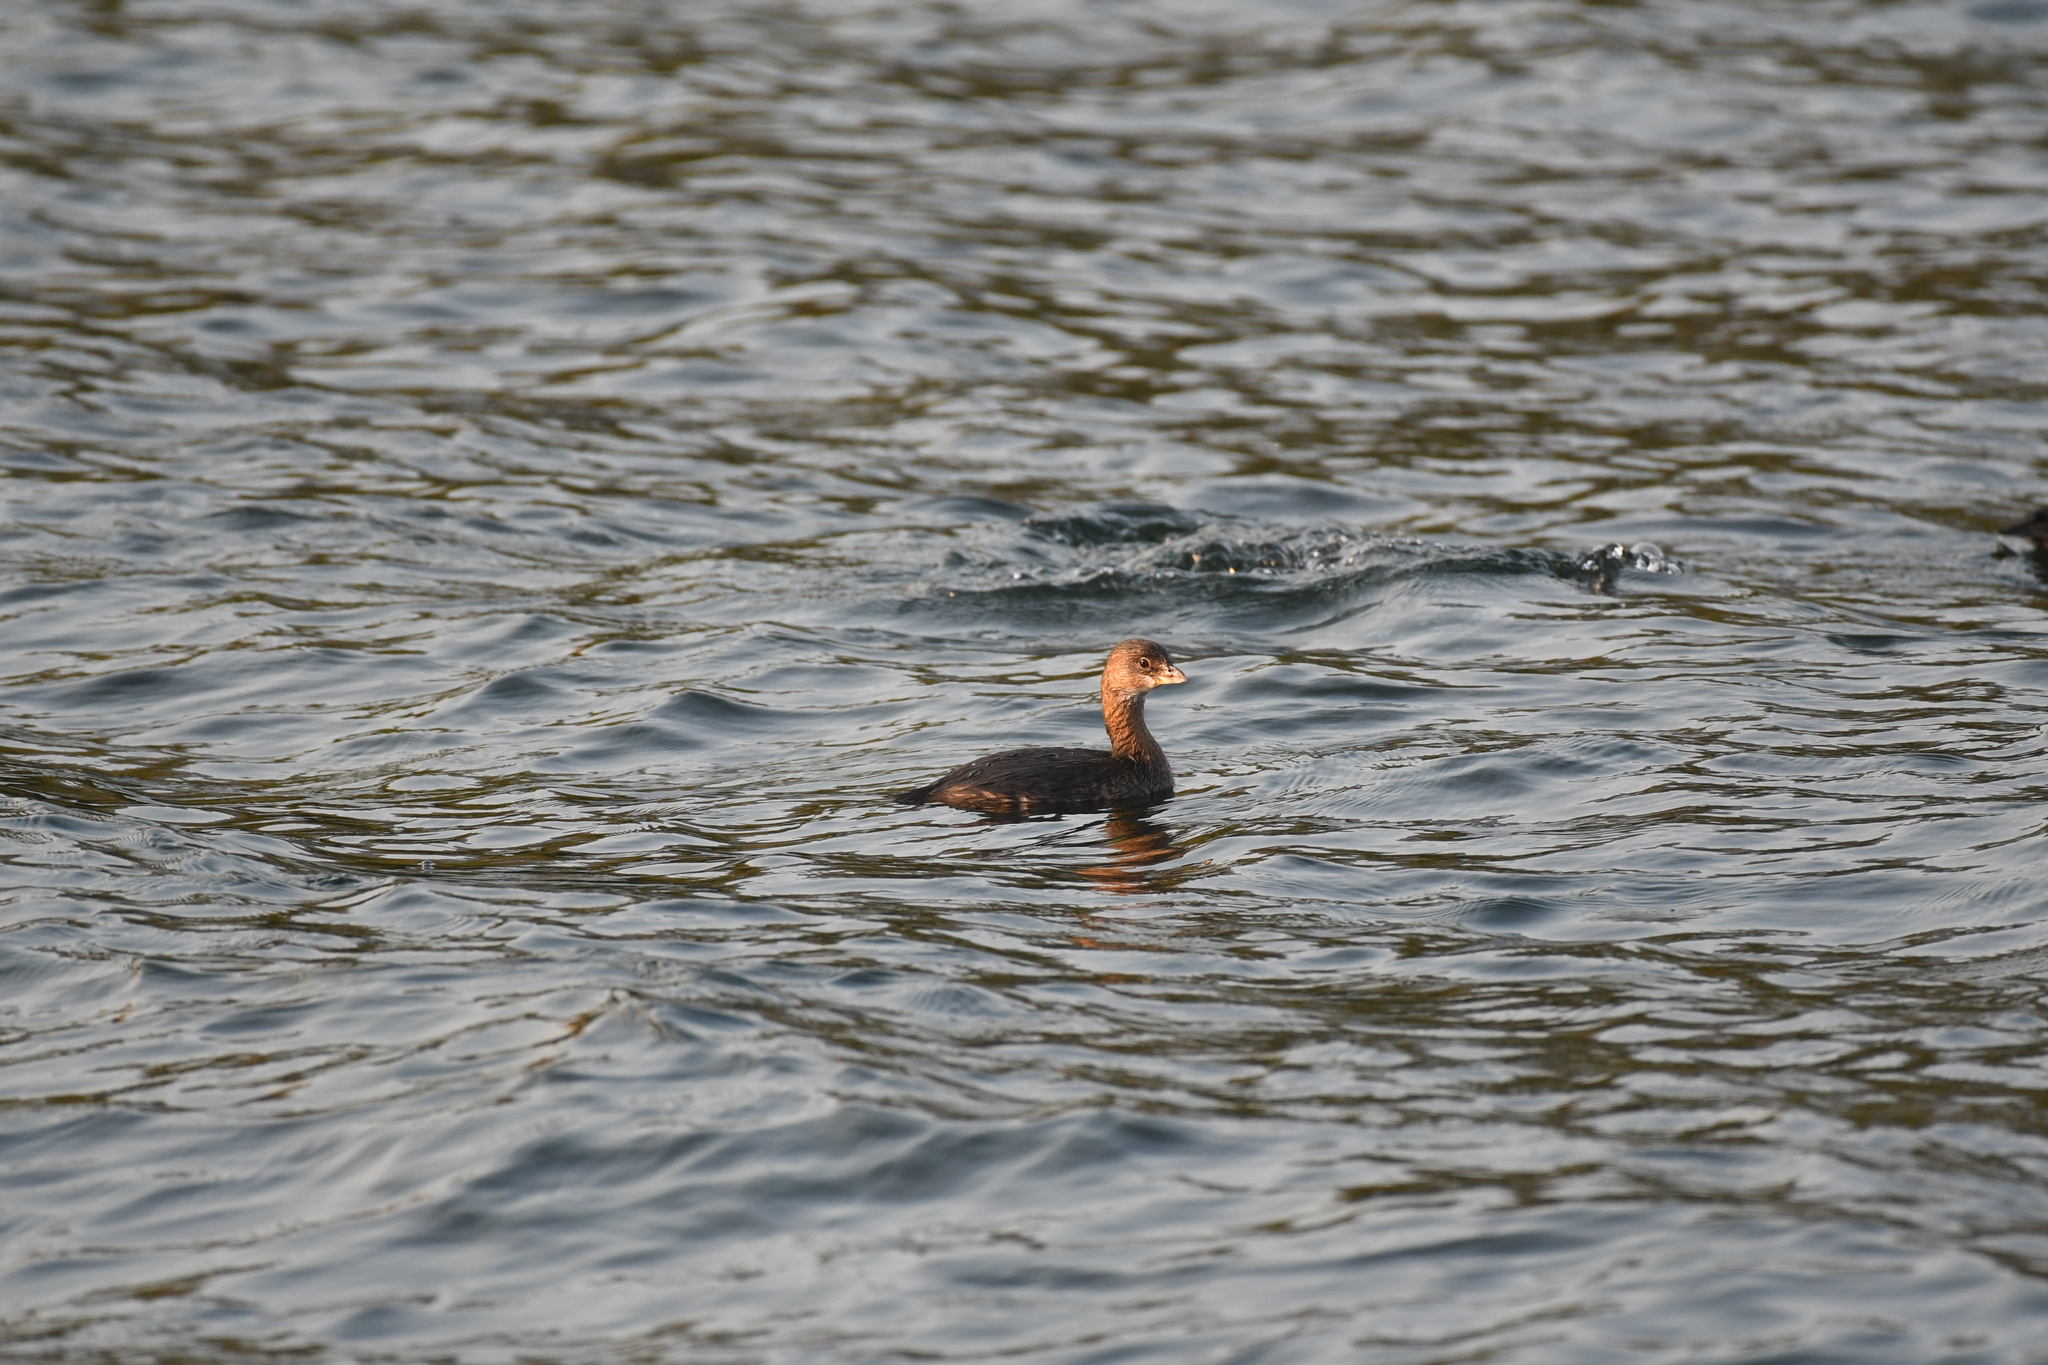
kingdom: Animalia
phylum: Chordata
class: Aves
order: Podicipediformes
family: Podicipedidae
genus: Podilymbus
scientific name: Podilymbus podiceps
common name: Pied-billed grebe
